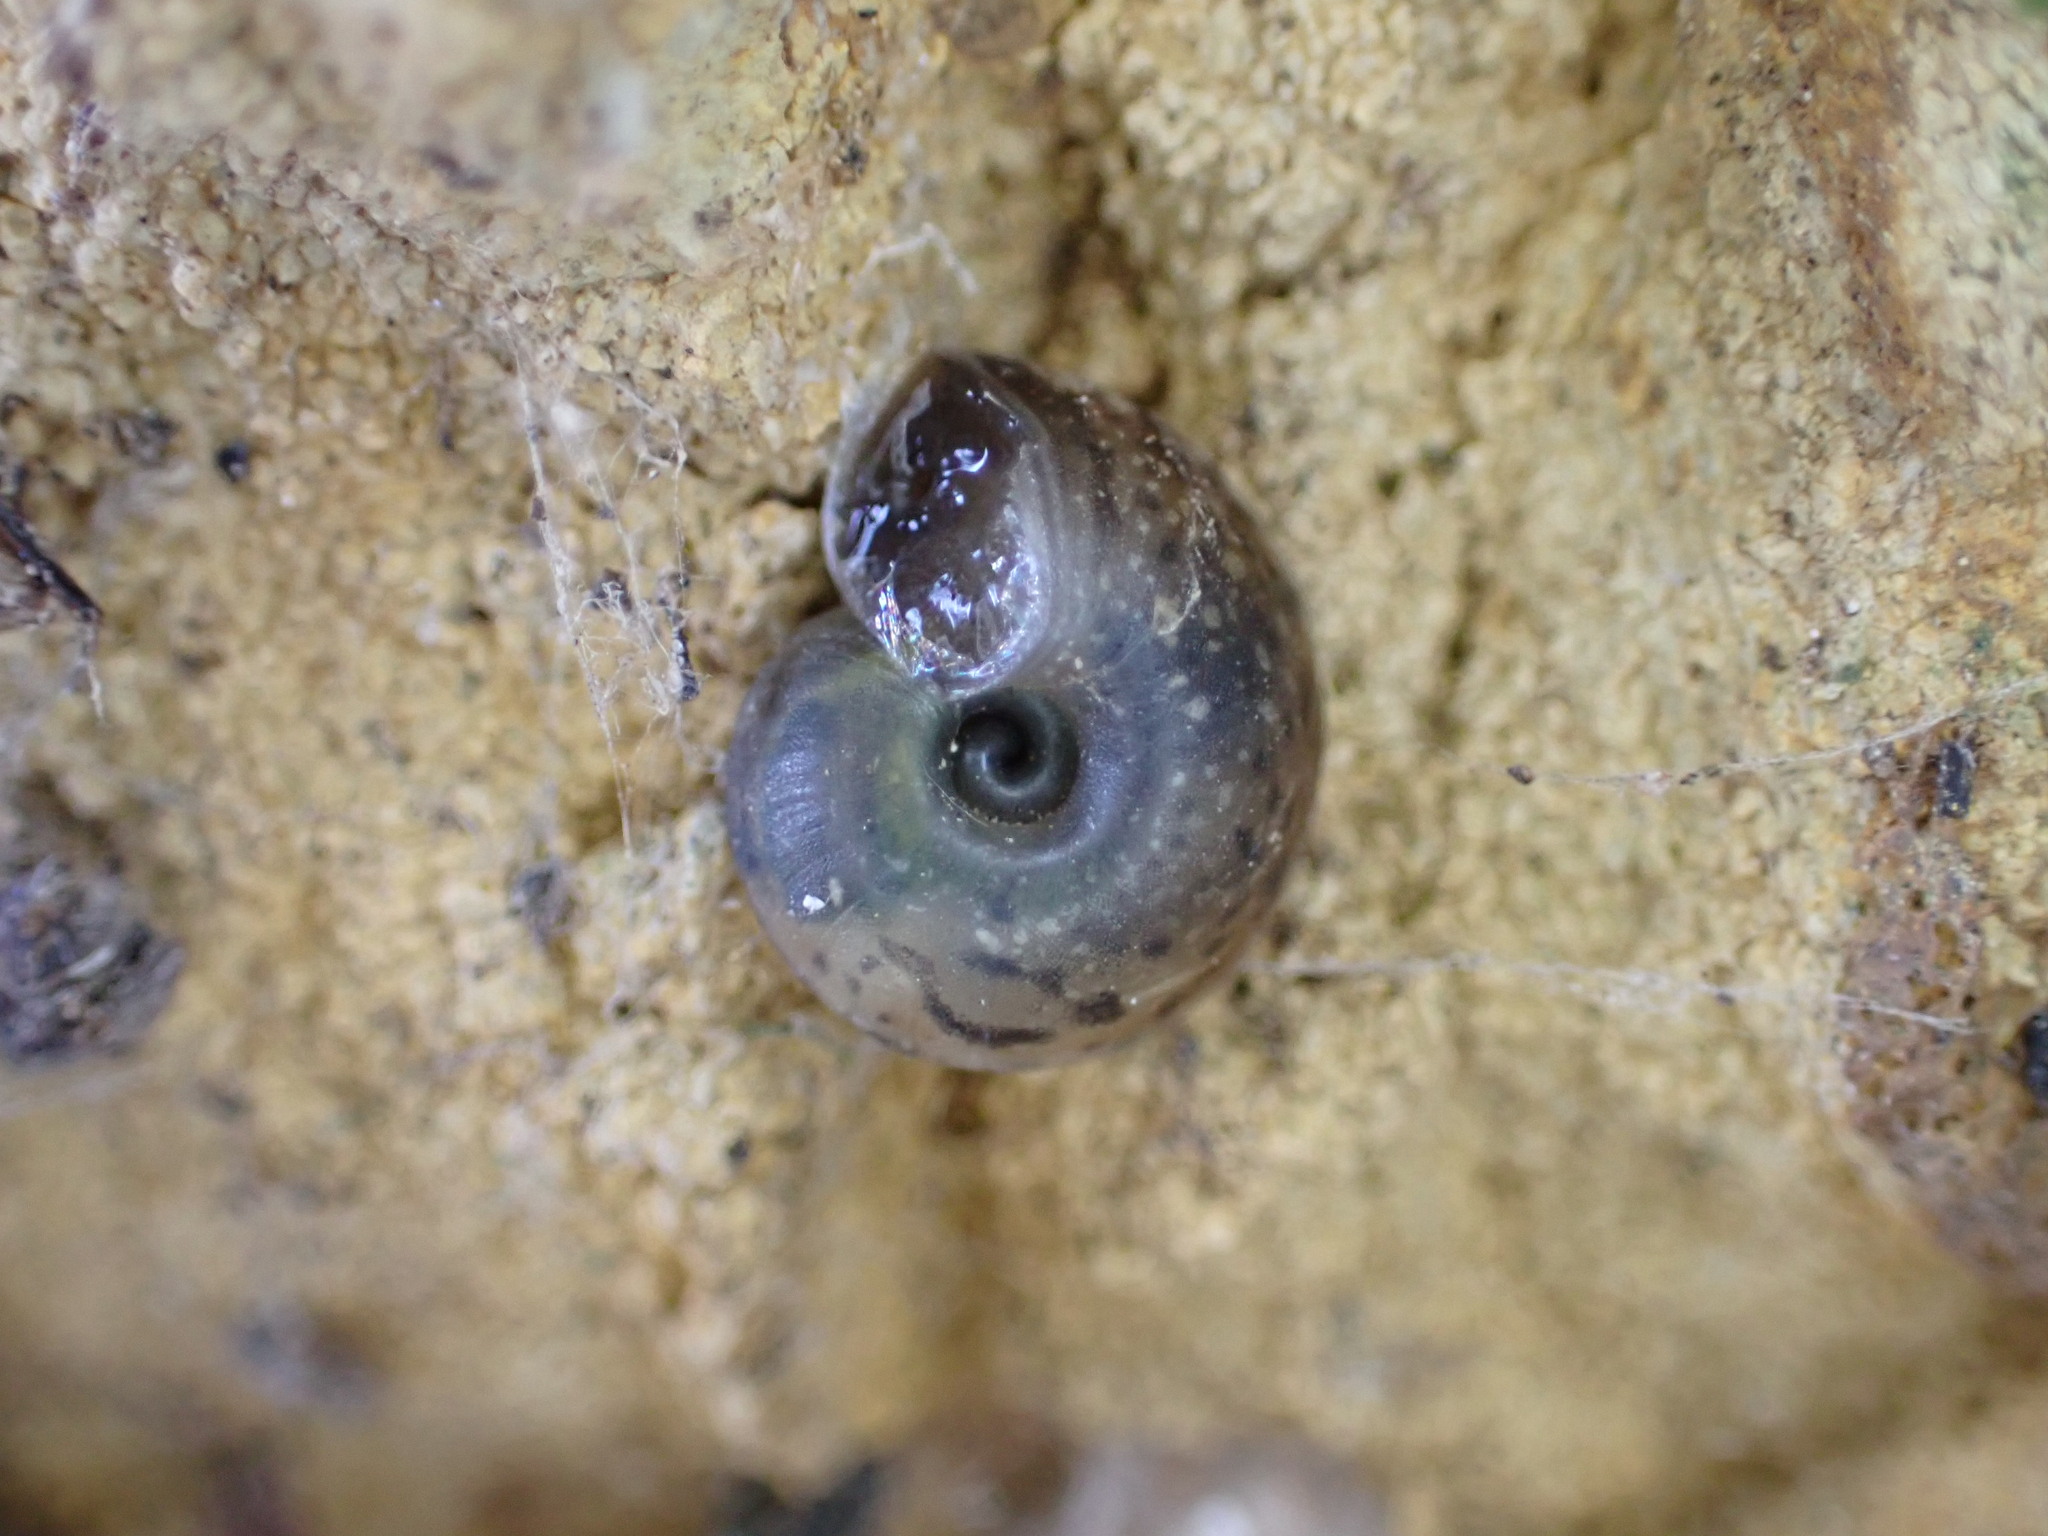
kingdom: Animalia
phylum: Mollusca
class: Gastropoda
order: Stylommatophora
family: Helicidae
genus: Helicigona
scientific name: Helicigona lapicida
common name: Lapidary snail
